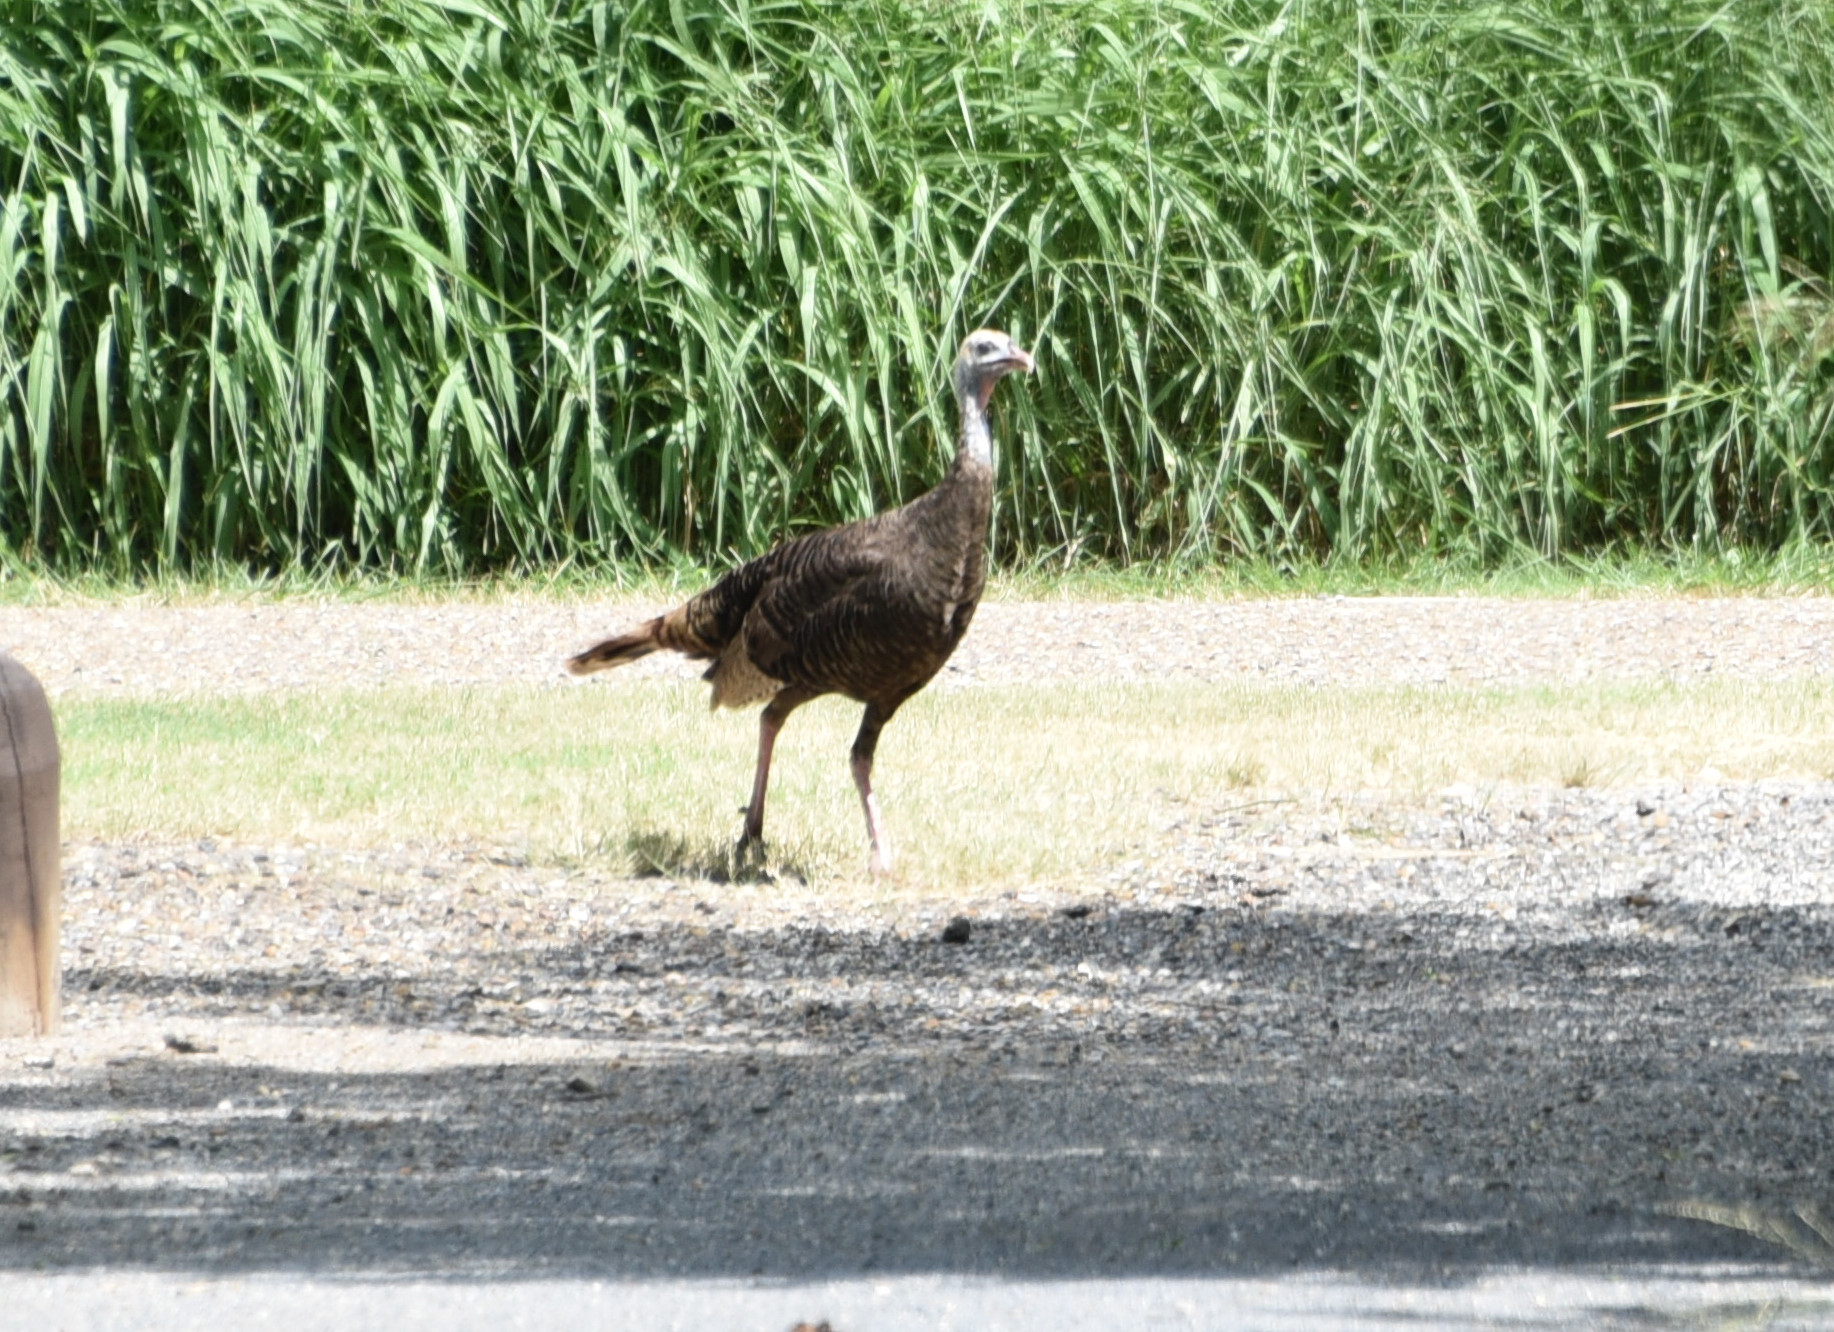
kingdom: Animalia
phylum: Chordata
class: Aves
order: Galliformes
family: Phasianidae
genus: Meleagris
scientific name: Meleagris gallopavo
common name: Wild turkey
